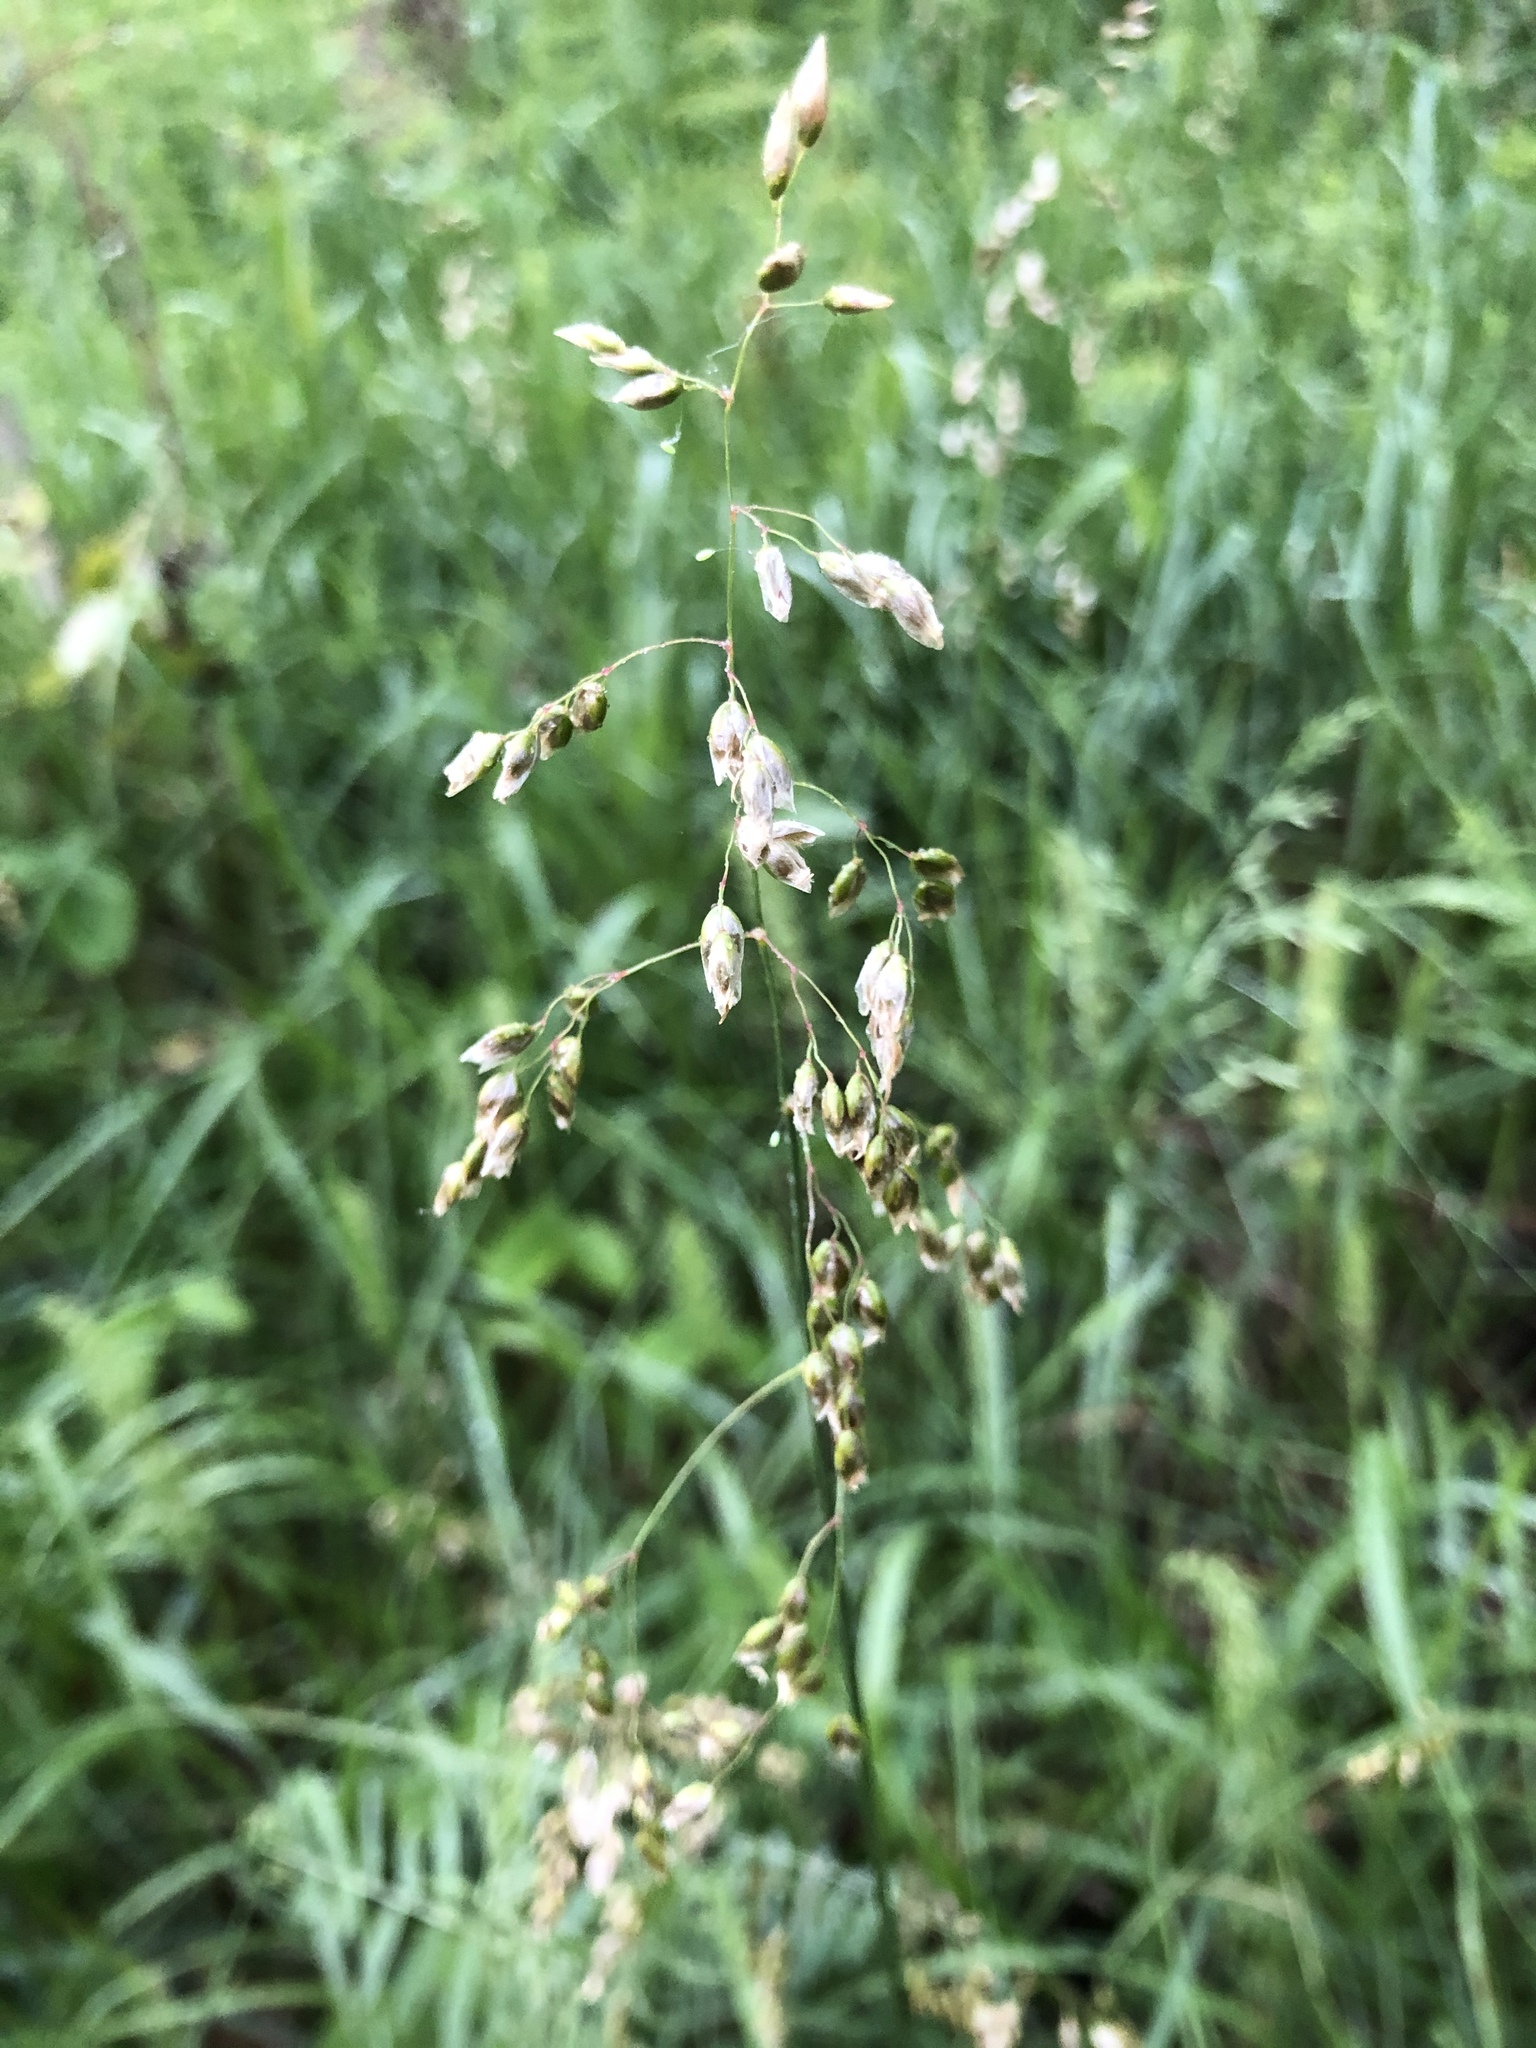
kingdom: Plantae
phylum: Tracheophyta
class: Liliopsida
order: Poales
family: Poaceae
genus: Anthoxanthum
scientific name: Anthoxanthum nitens
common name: Holy grass
